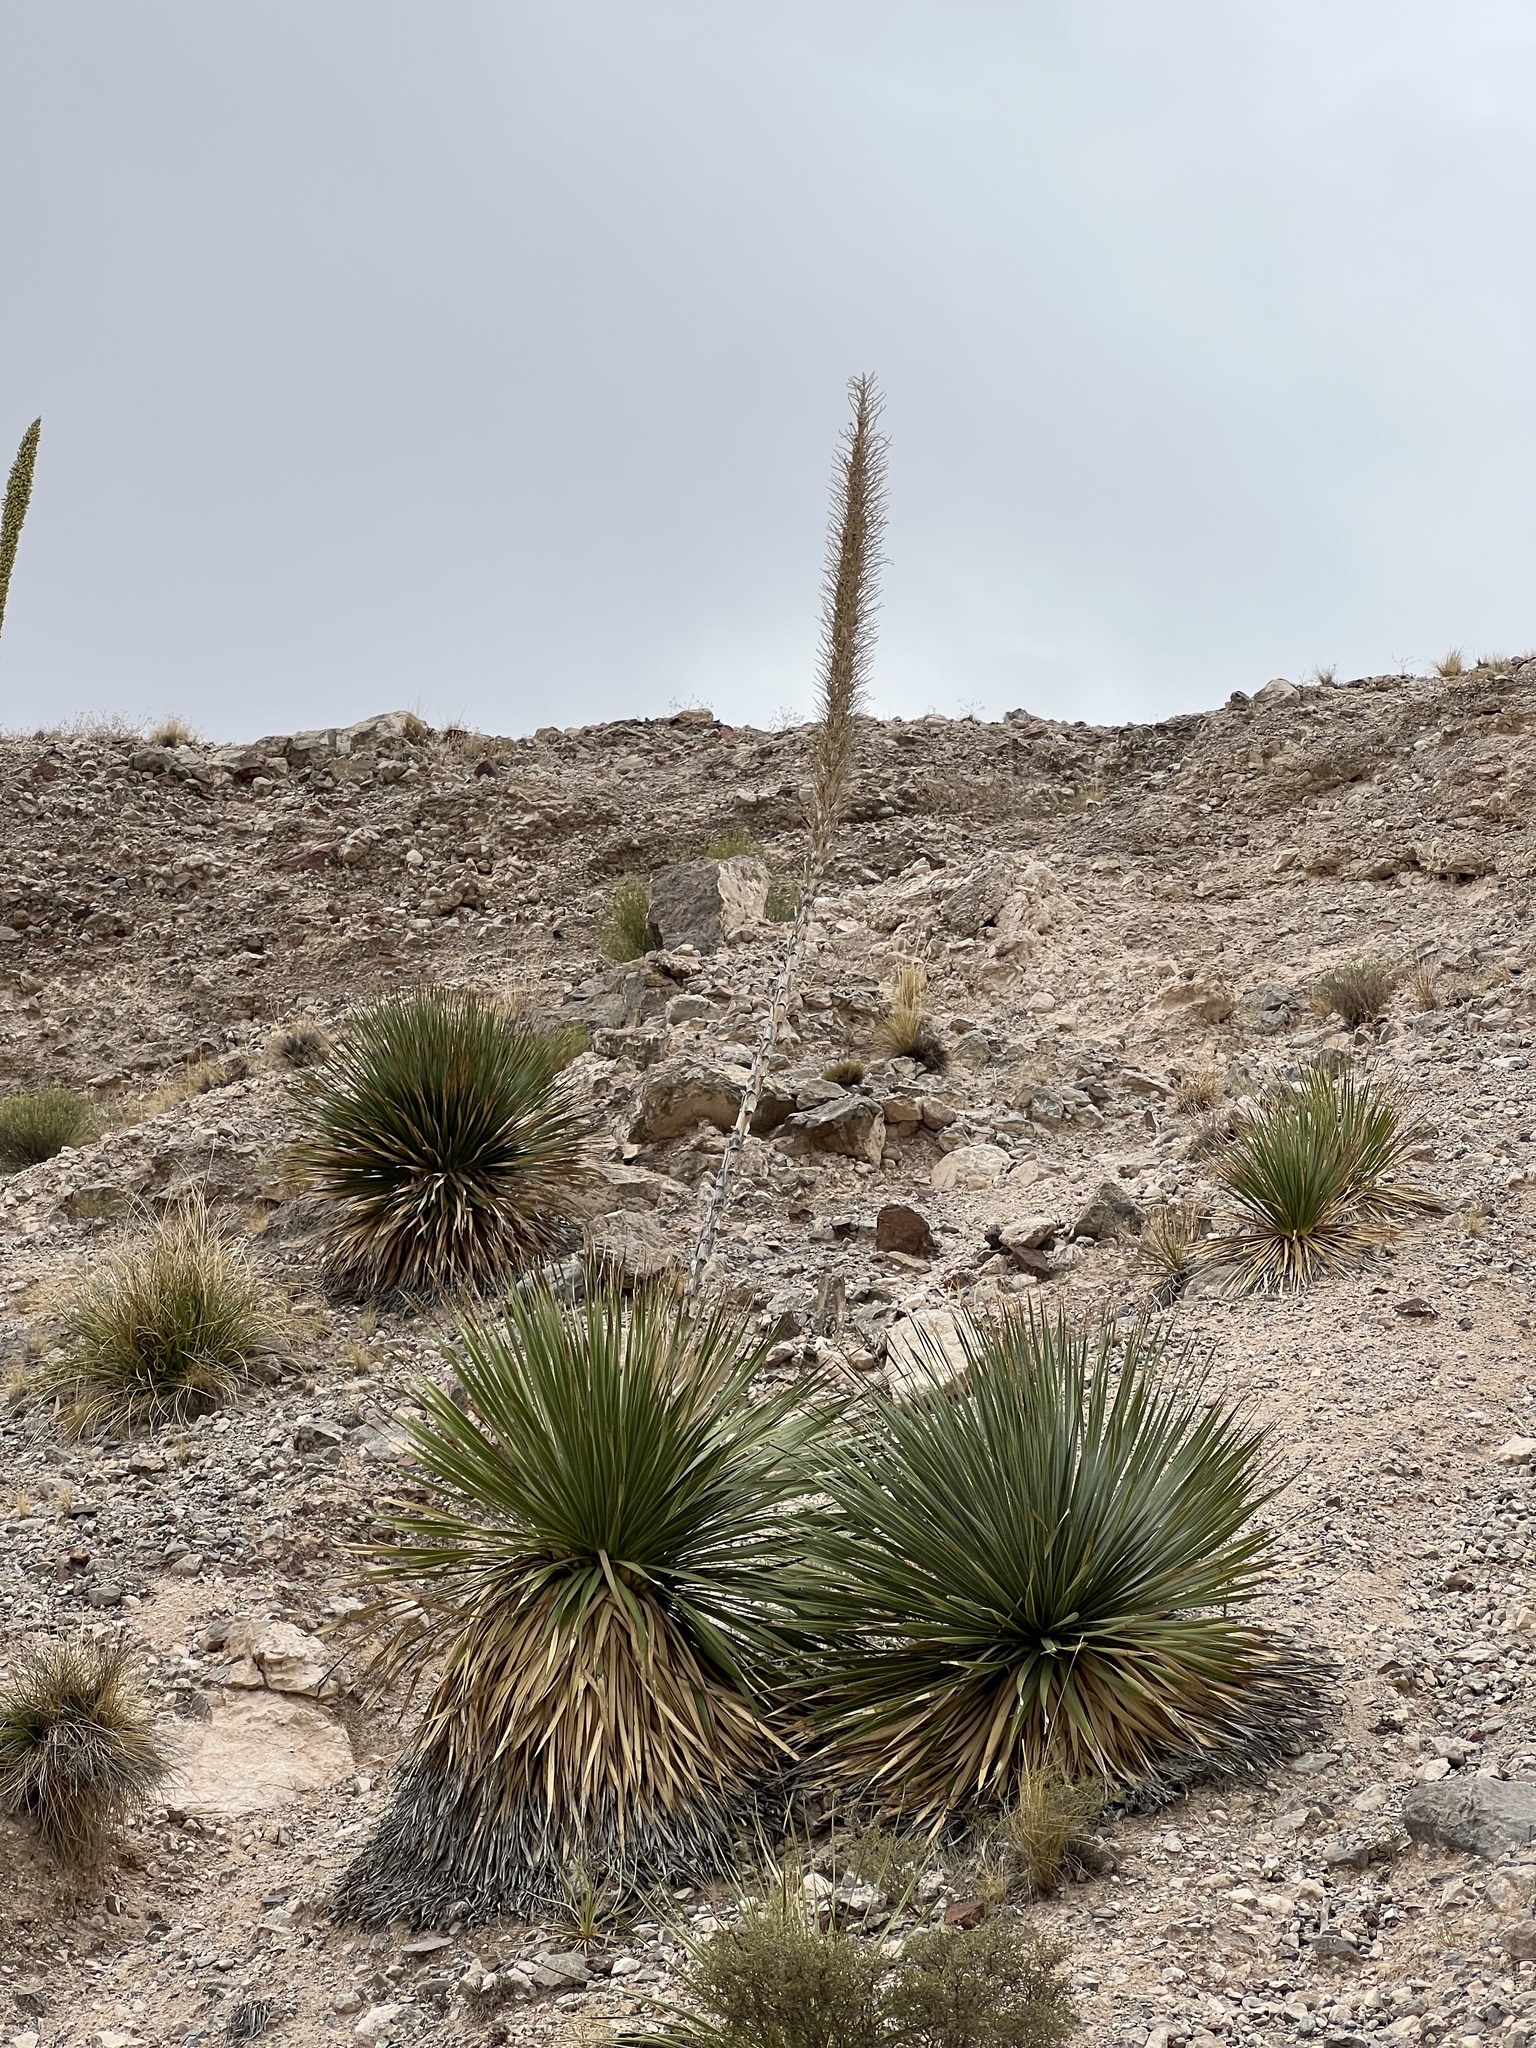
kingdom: Plantae
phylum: Tracheophyta
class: Liliopsida
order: Asparagales
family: Asparagaceae
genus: Dasylirion
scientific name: Dasylirion wheeleri
